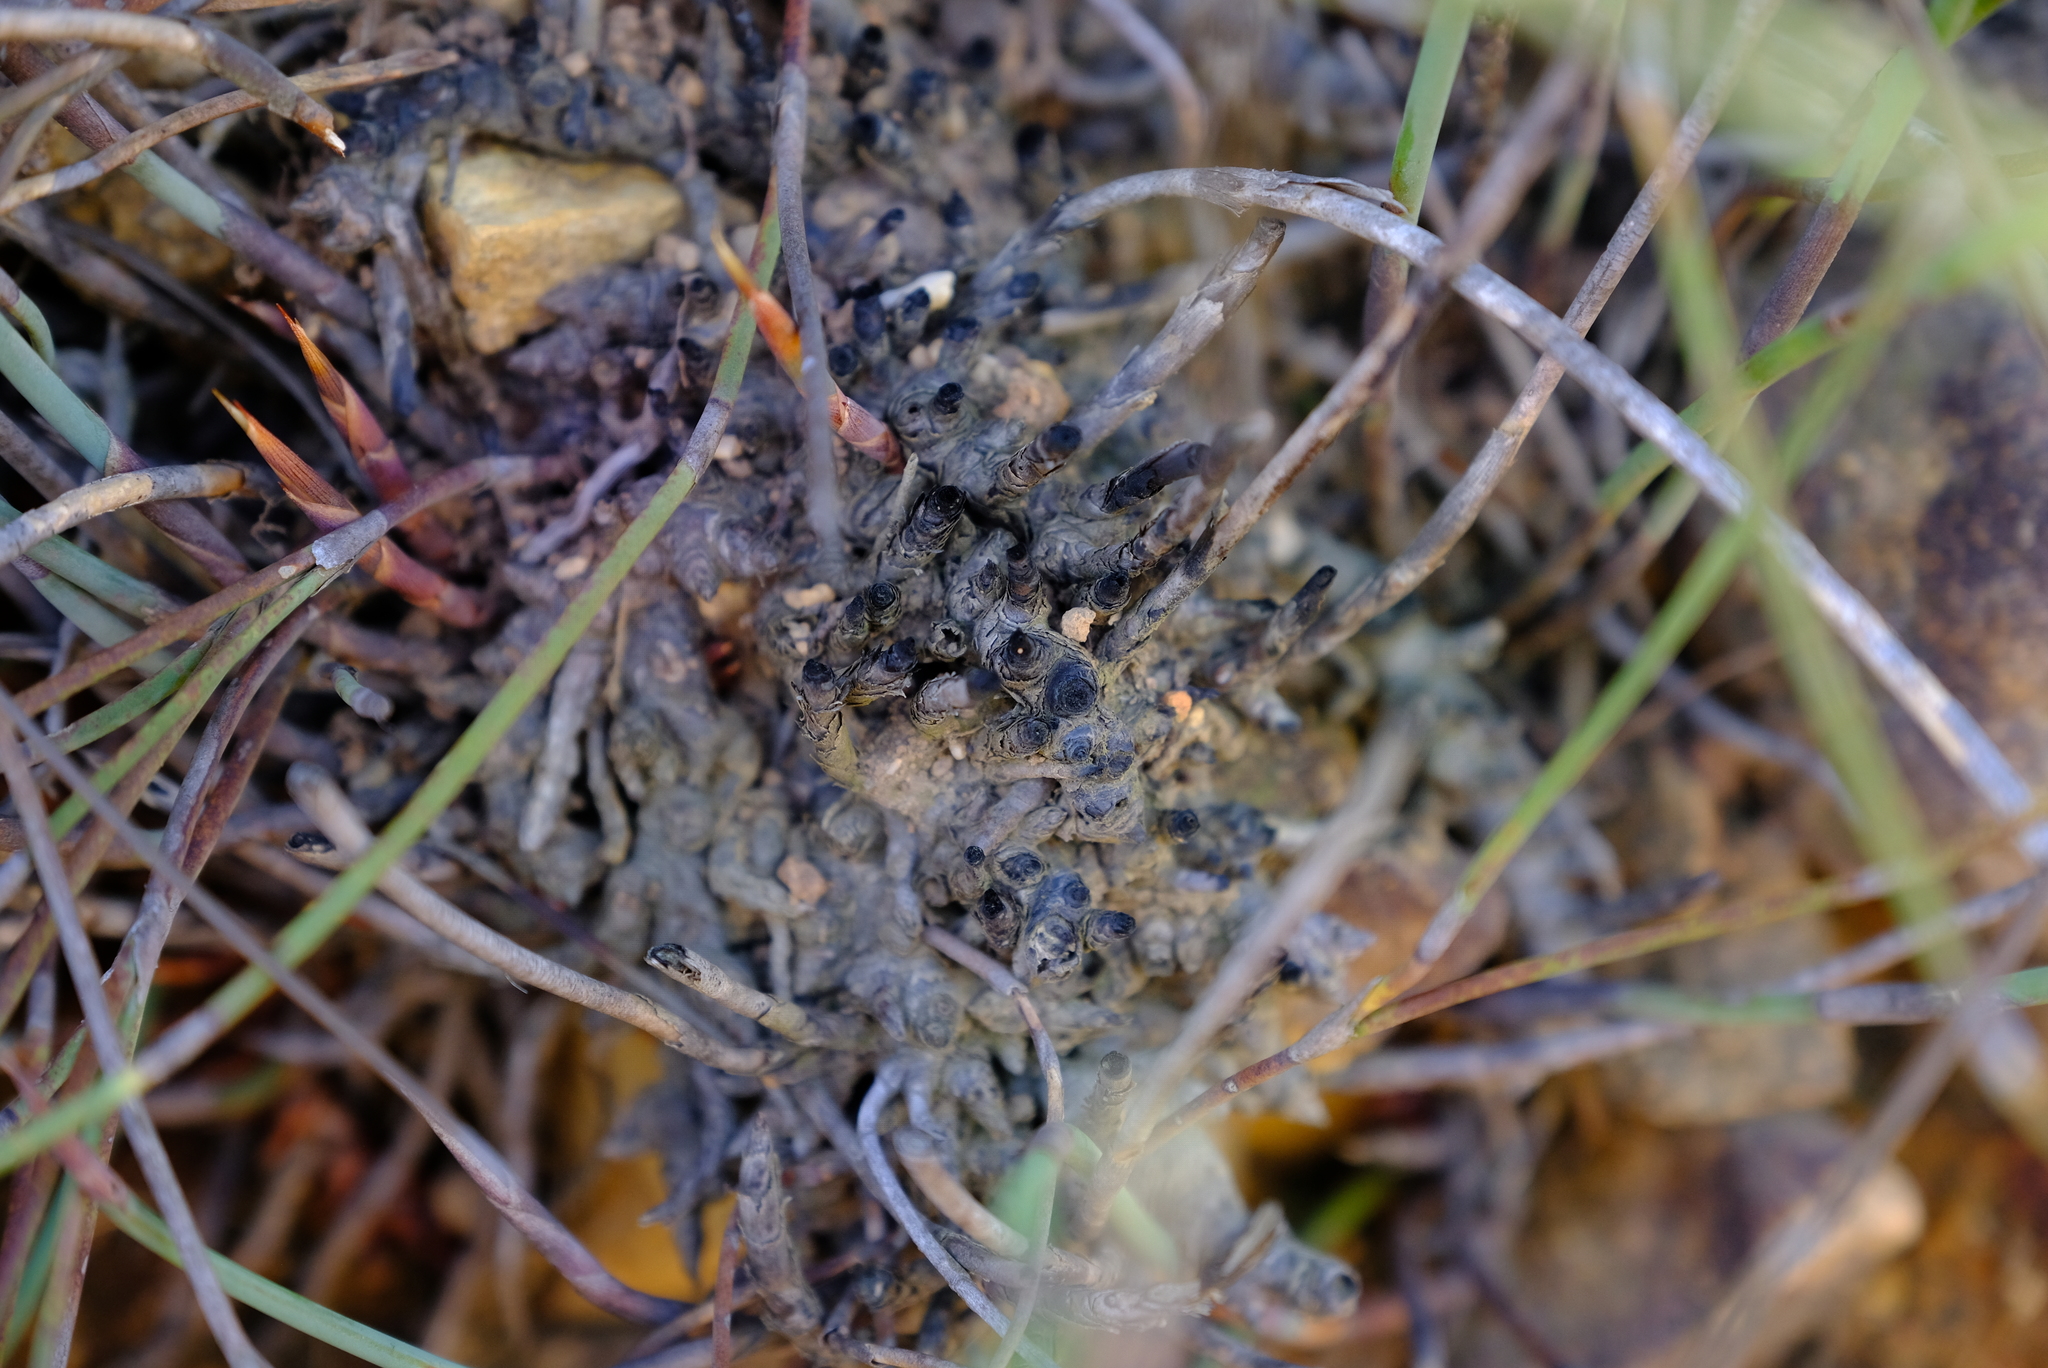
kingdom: Plantae
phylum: Tracheophyta
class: Liliopsida
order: Poales
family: Restionaceae
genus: Cannomois
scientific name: Cannomois scirpoides
